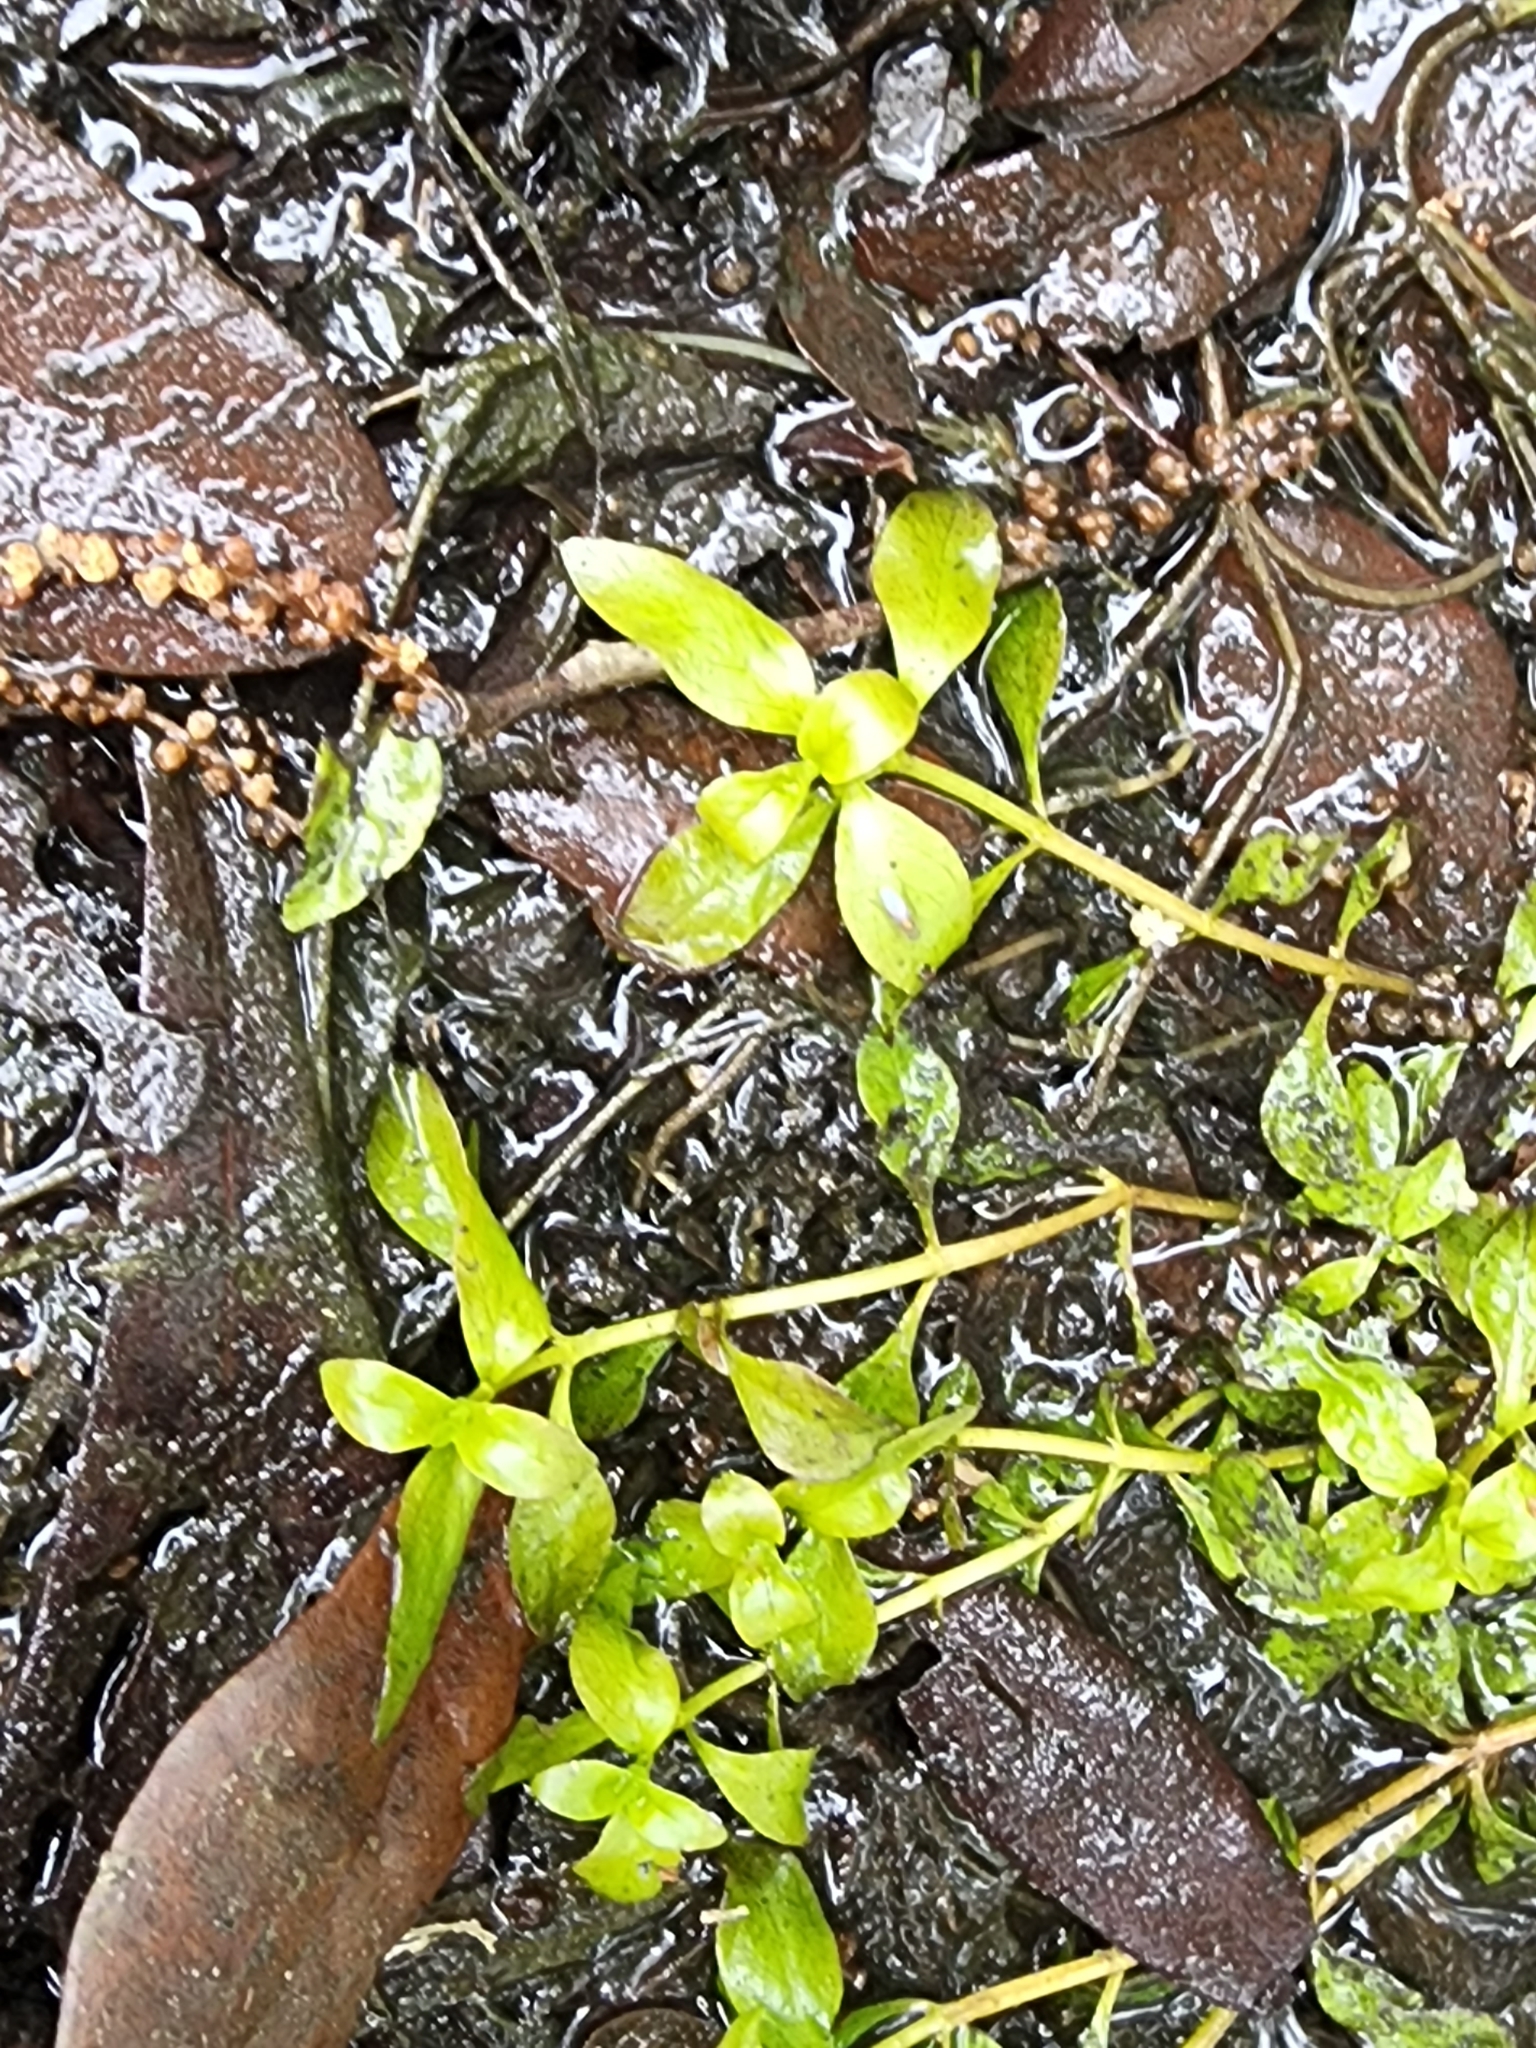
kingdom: Plantae
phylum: Tracheophyta
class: Magnoliopsida
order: Myrtales
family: Onagraceae
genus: Ludwigia
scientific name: Ludwigia palustris
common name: Hampshire-purslane
